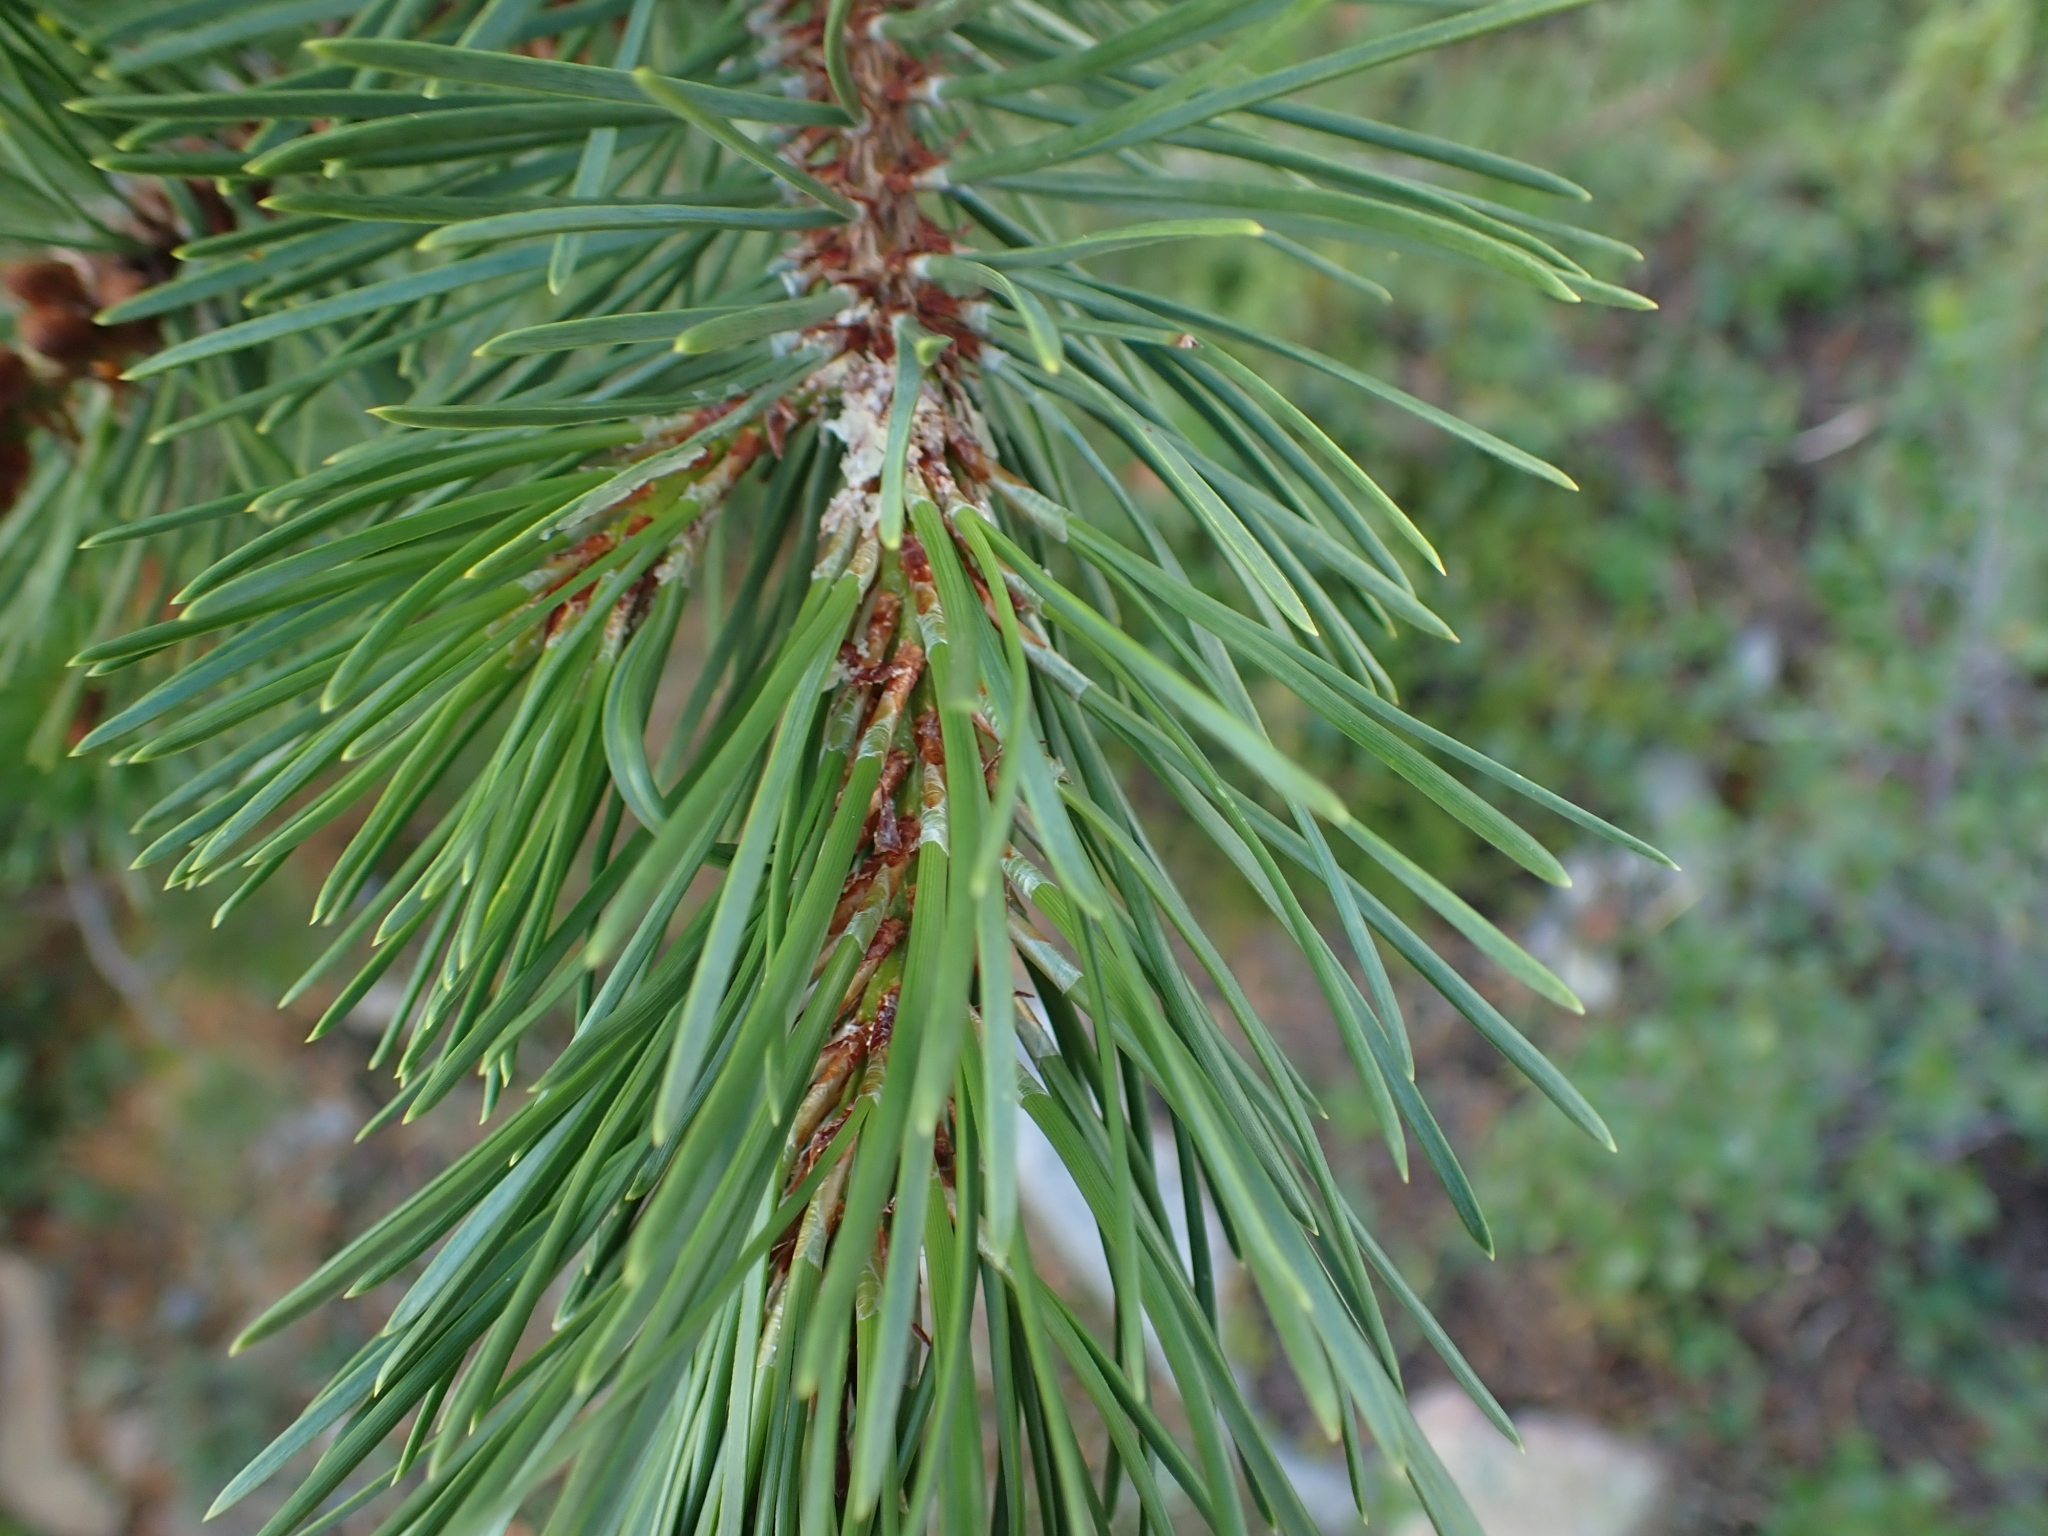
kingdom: Plantae
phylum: Tracheophyta
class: Pinopsida
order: Pinales
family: Pinaceae
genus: Pinus
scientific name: Pinus contorta
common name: Lodgepole pine
